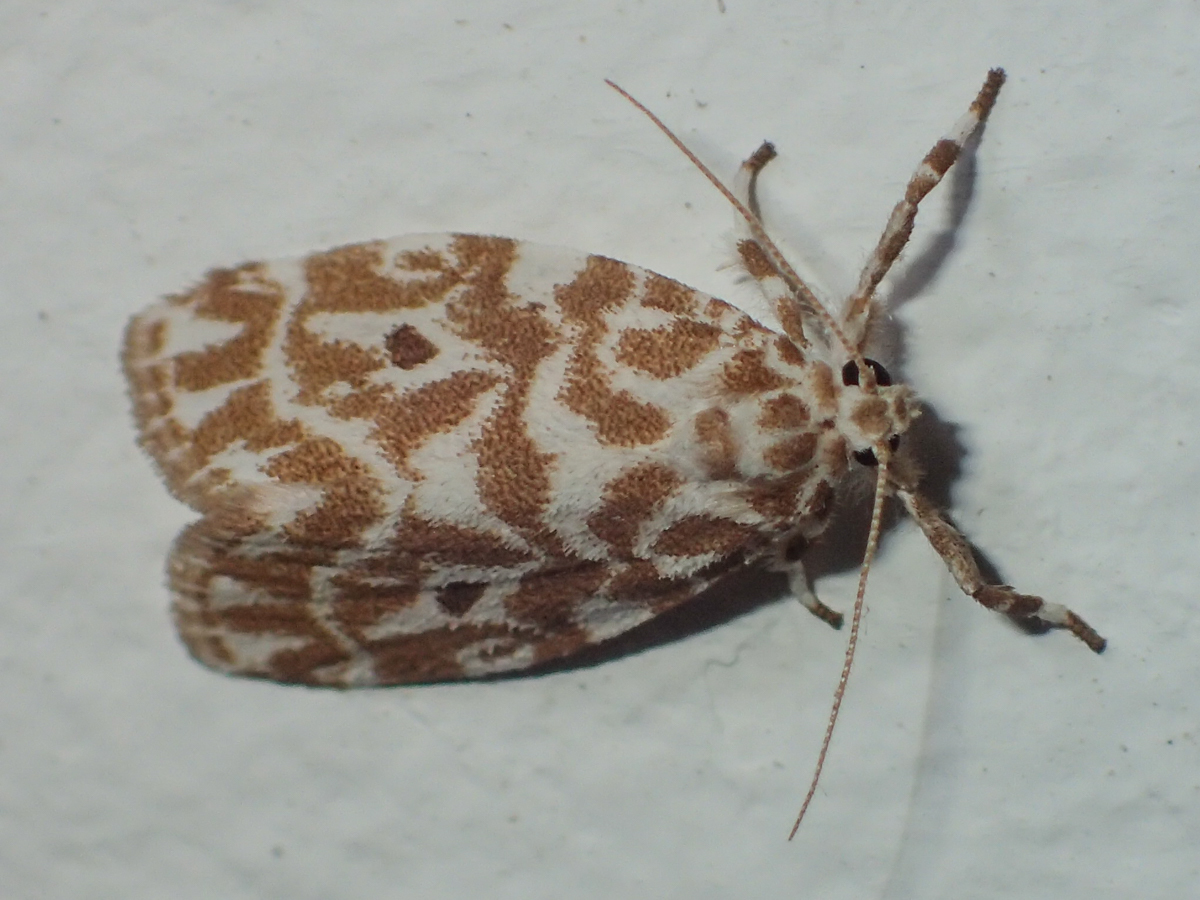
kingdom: Animalia
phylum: Arthropoda
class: Insecta
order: Lepidoptera
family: Erebidae
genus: Cabarda
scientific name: Cabarda sequens
